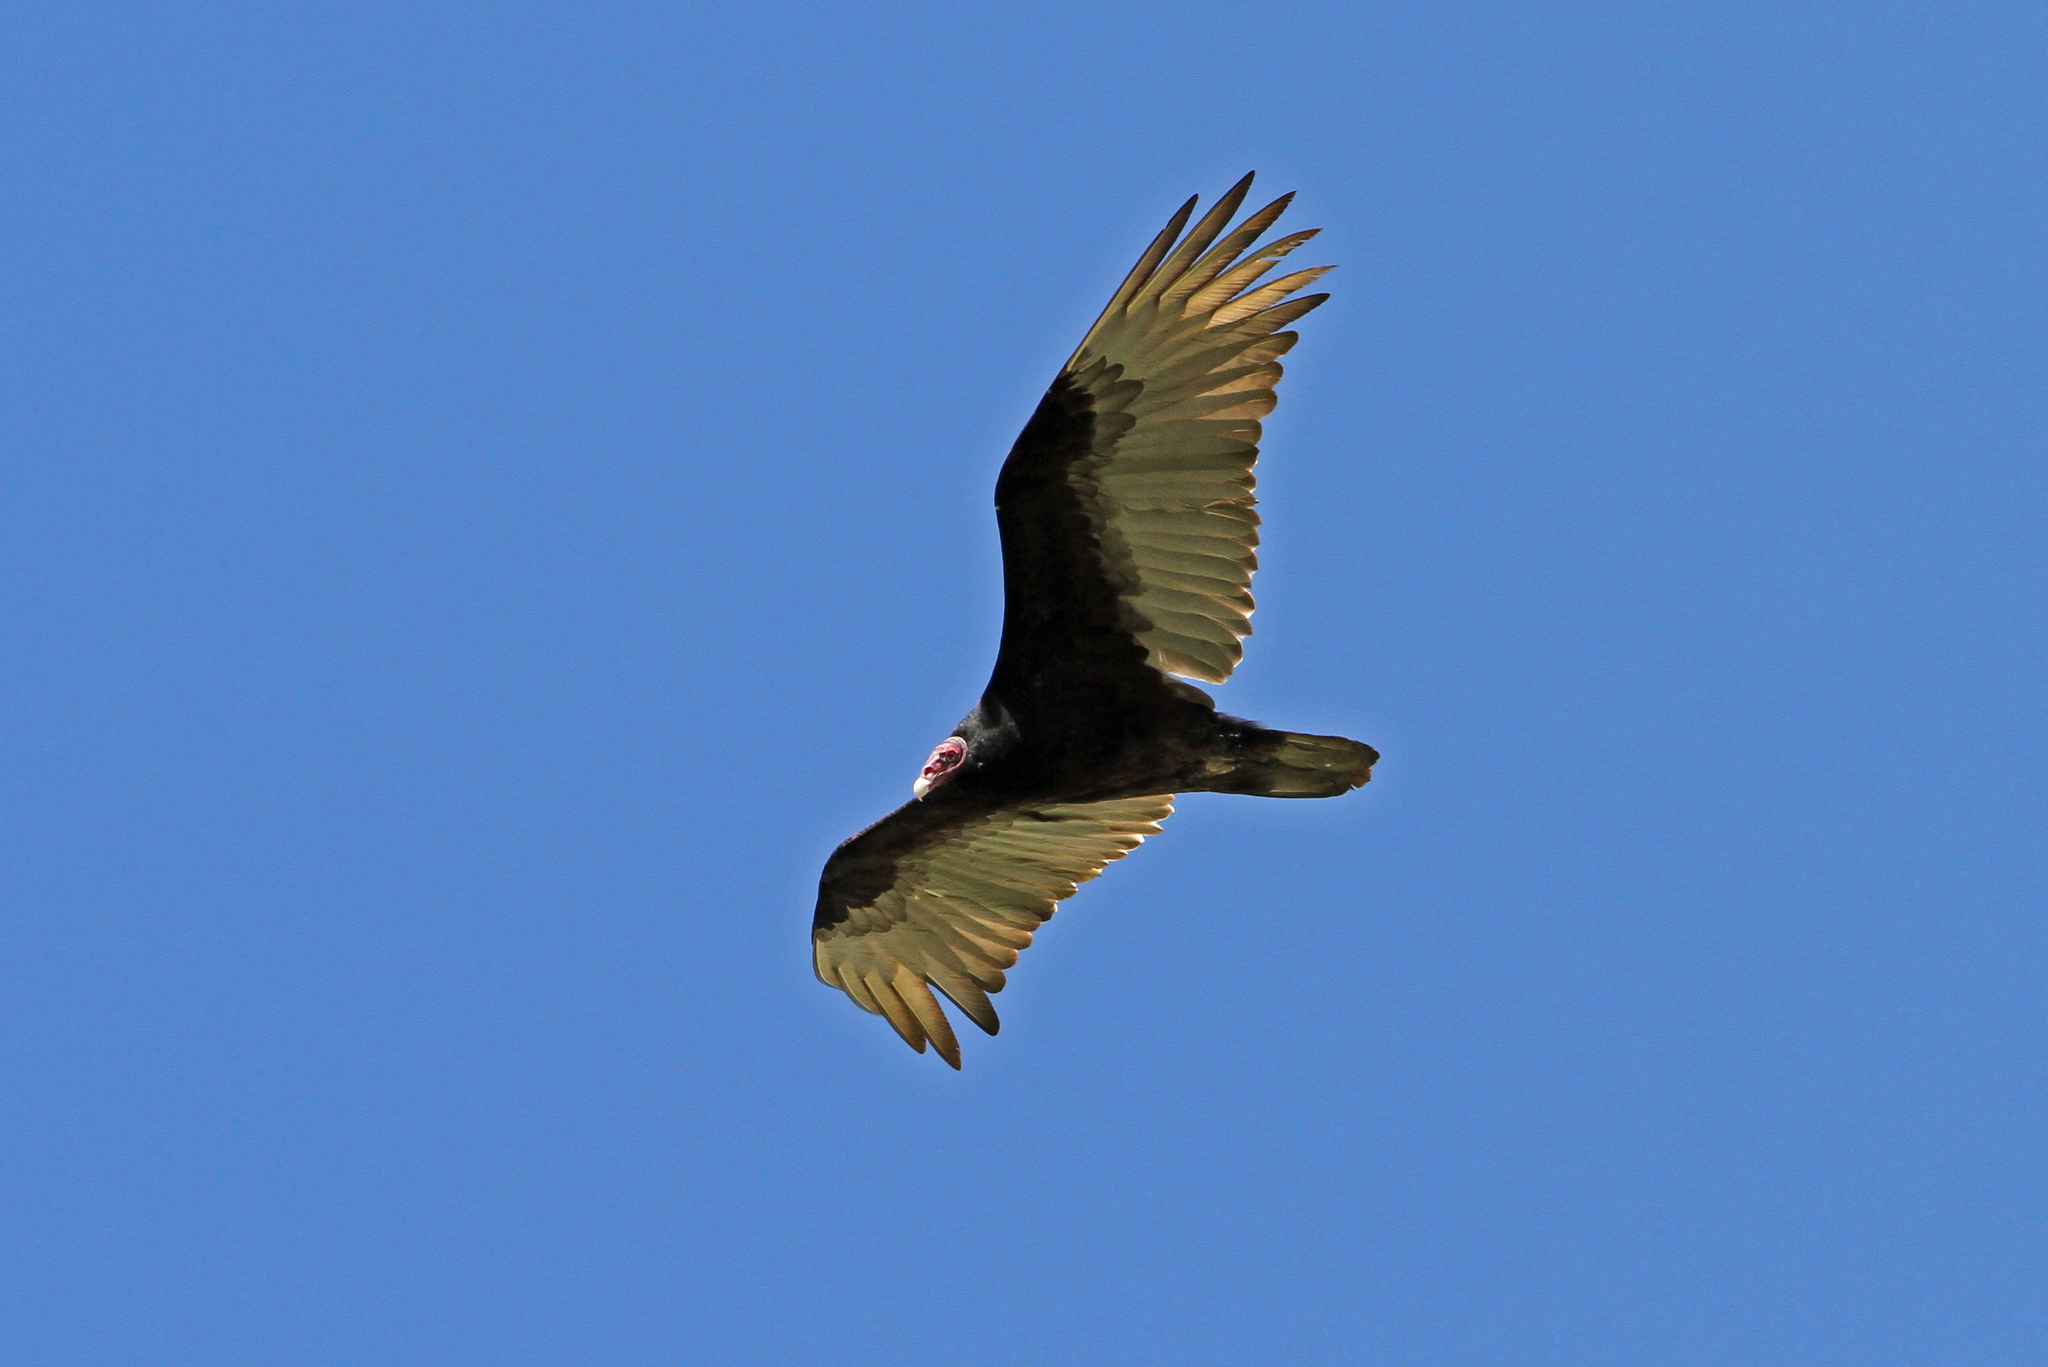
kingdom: Animalia
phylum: Chordata
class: Aves
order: Accipitriformes
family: Cathartidae
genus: Cathartes
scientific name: Cathartes aura
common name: Turkey vulture
